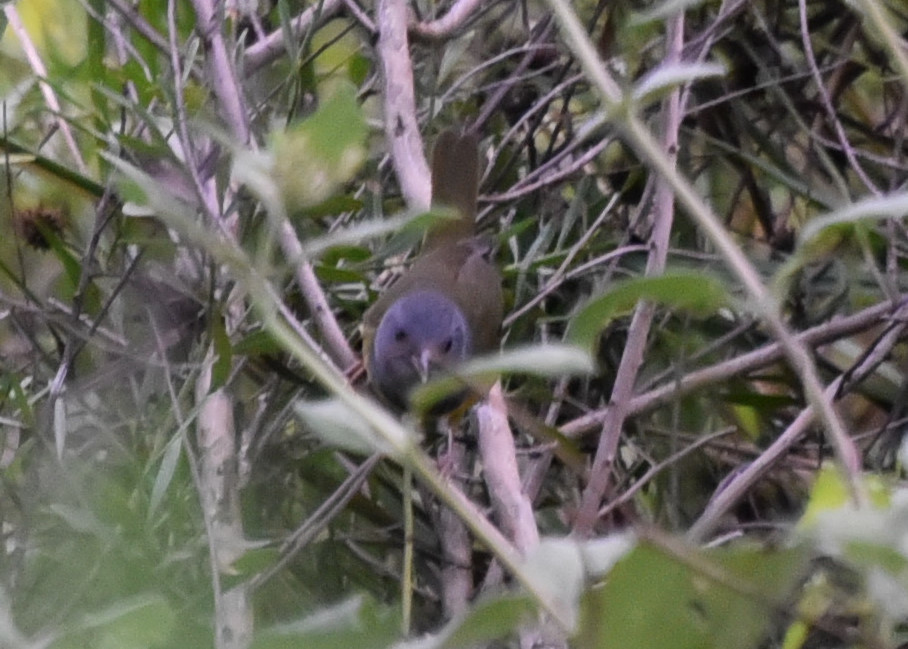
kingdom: Animalia
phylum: Chordata
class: Aves
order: Passeriformes
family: Parulidae
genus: Geothlypis
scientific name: Geothlypis philadelphia
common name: Mourning warbler
